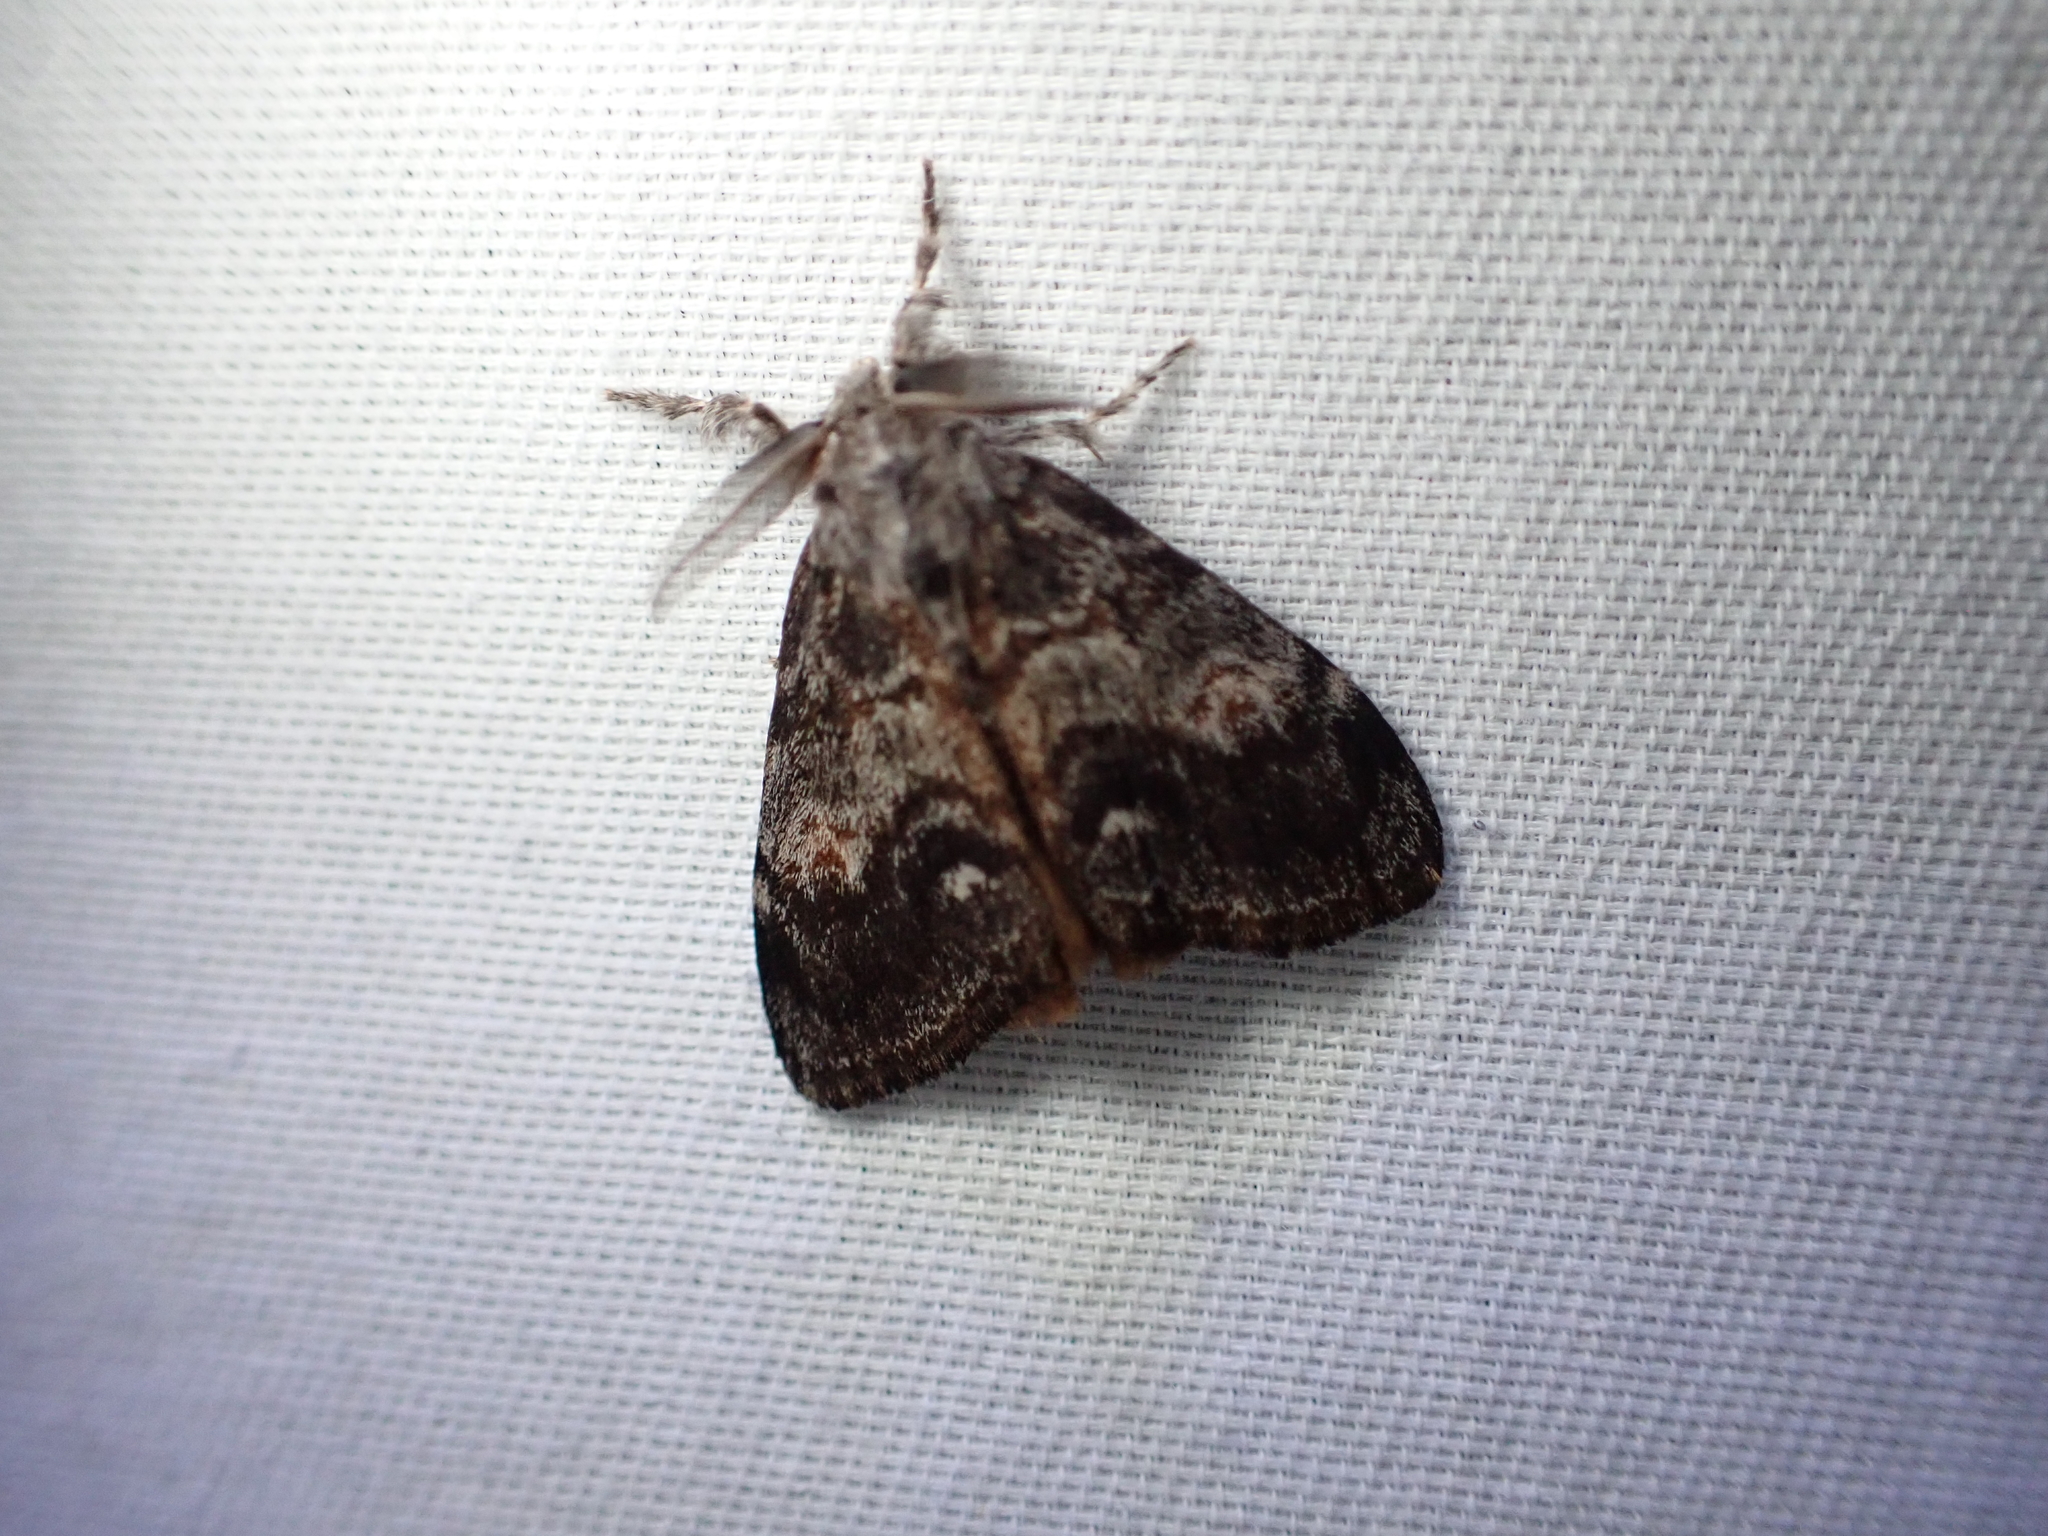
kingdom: Animalia
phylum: Arthropoda
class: Insecta
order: Lepidoptera
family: Erebidae
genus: Orgyia
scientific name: Orgyia pseudotsugata
